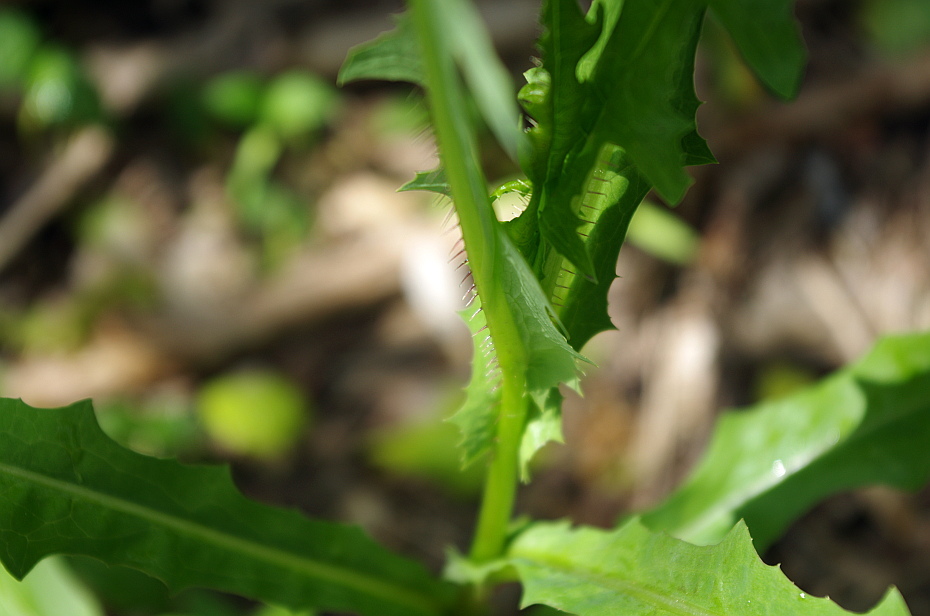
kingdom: Plantae
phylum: Tracheophyta
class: Magnoliopsida
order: Asterales
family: Asteraceae
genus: Lactuca
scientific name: Lactuca serriola
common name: Prickly lettuce
